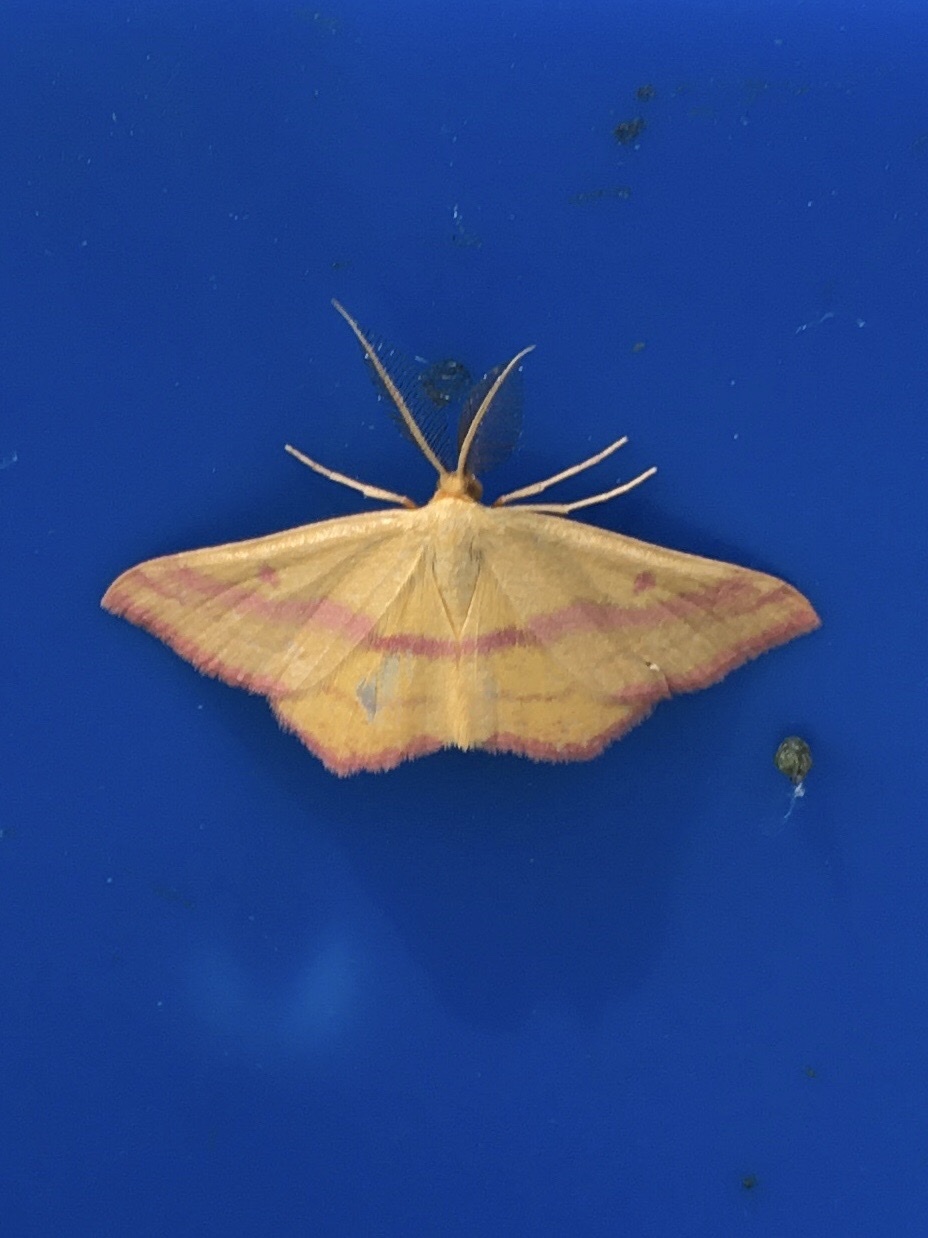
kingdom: Animalia
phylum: Arthropoda
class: Insecta
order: Lepidoptera
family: Geometridae
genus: Haematopis
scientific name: Haematopis grataria
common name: Chickweed geometer
